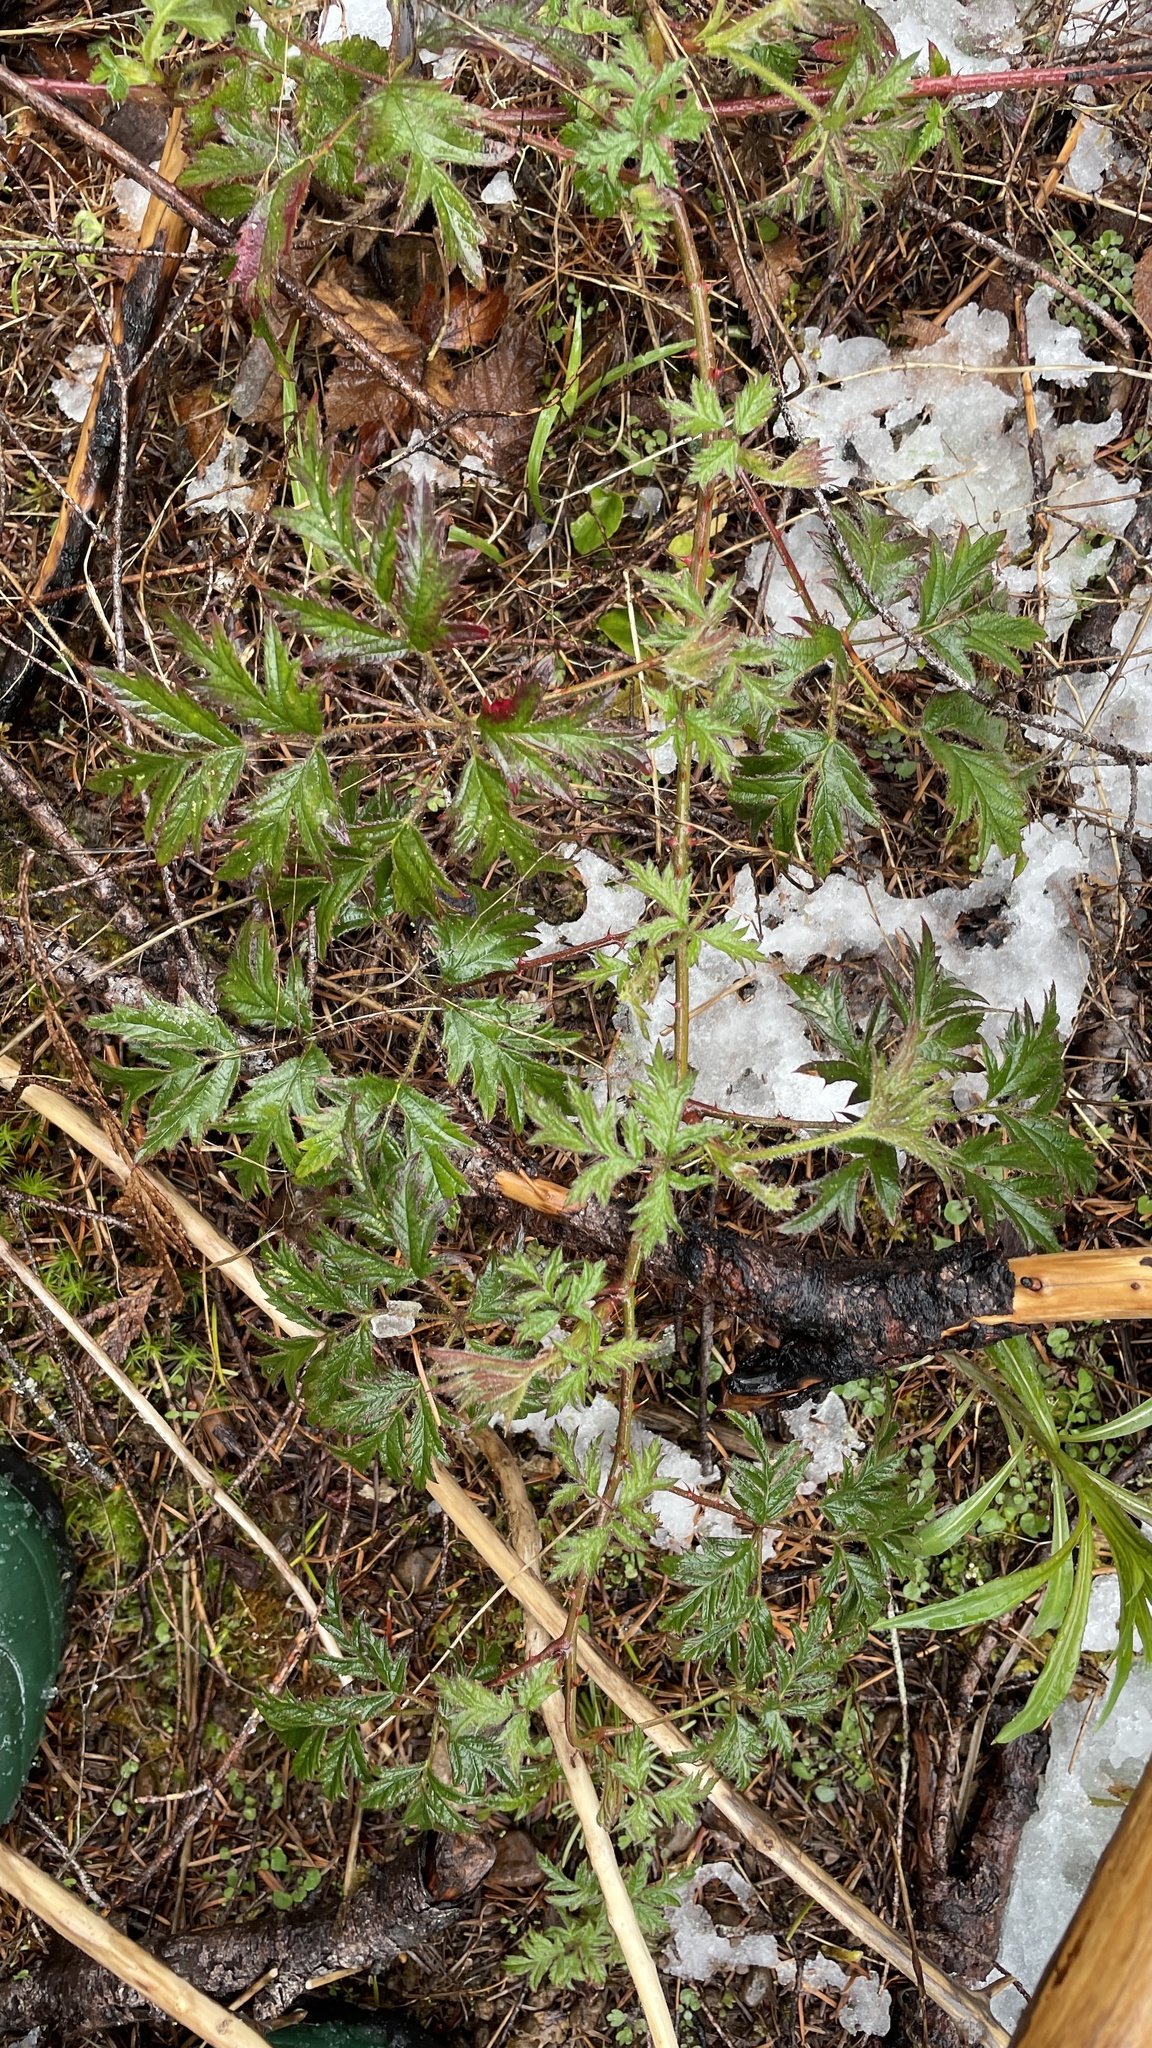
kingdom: Plantae
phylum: Tracheophyta
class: Magnoliopsida
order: Rosales
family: Rosaceae
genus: Rubus
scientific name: Rubus laciniatus
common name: Evergreen blackberry
